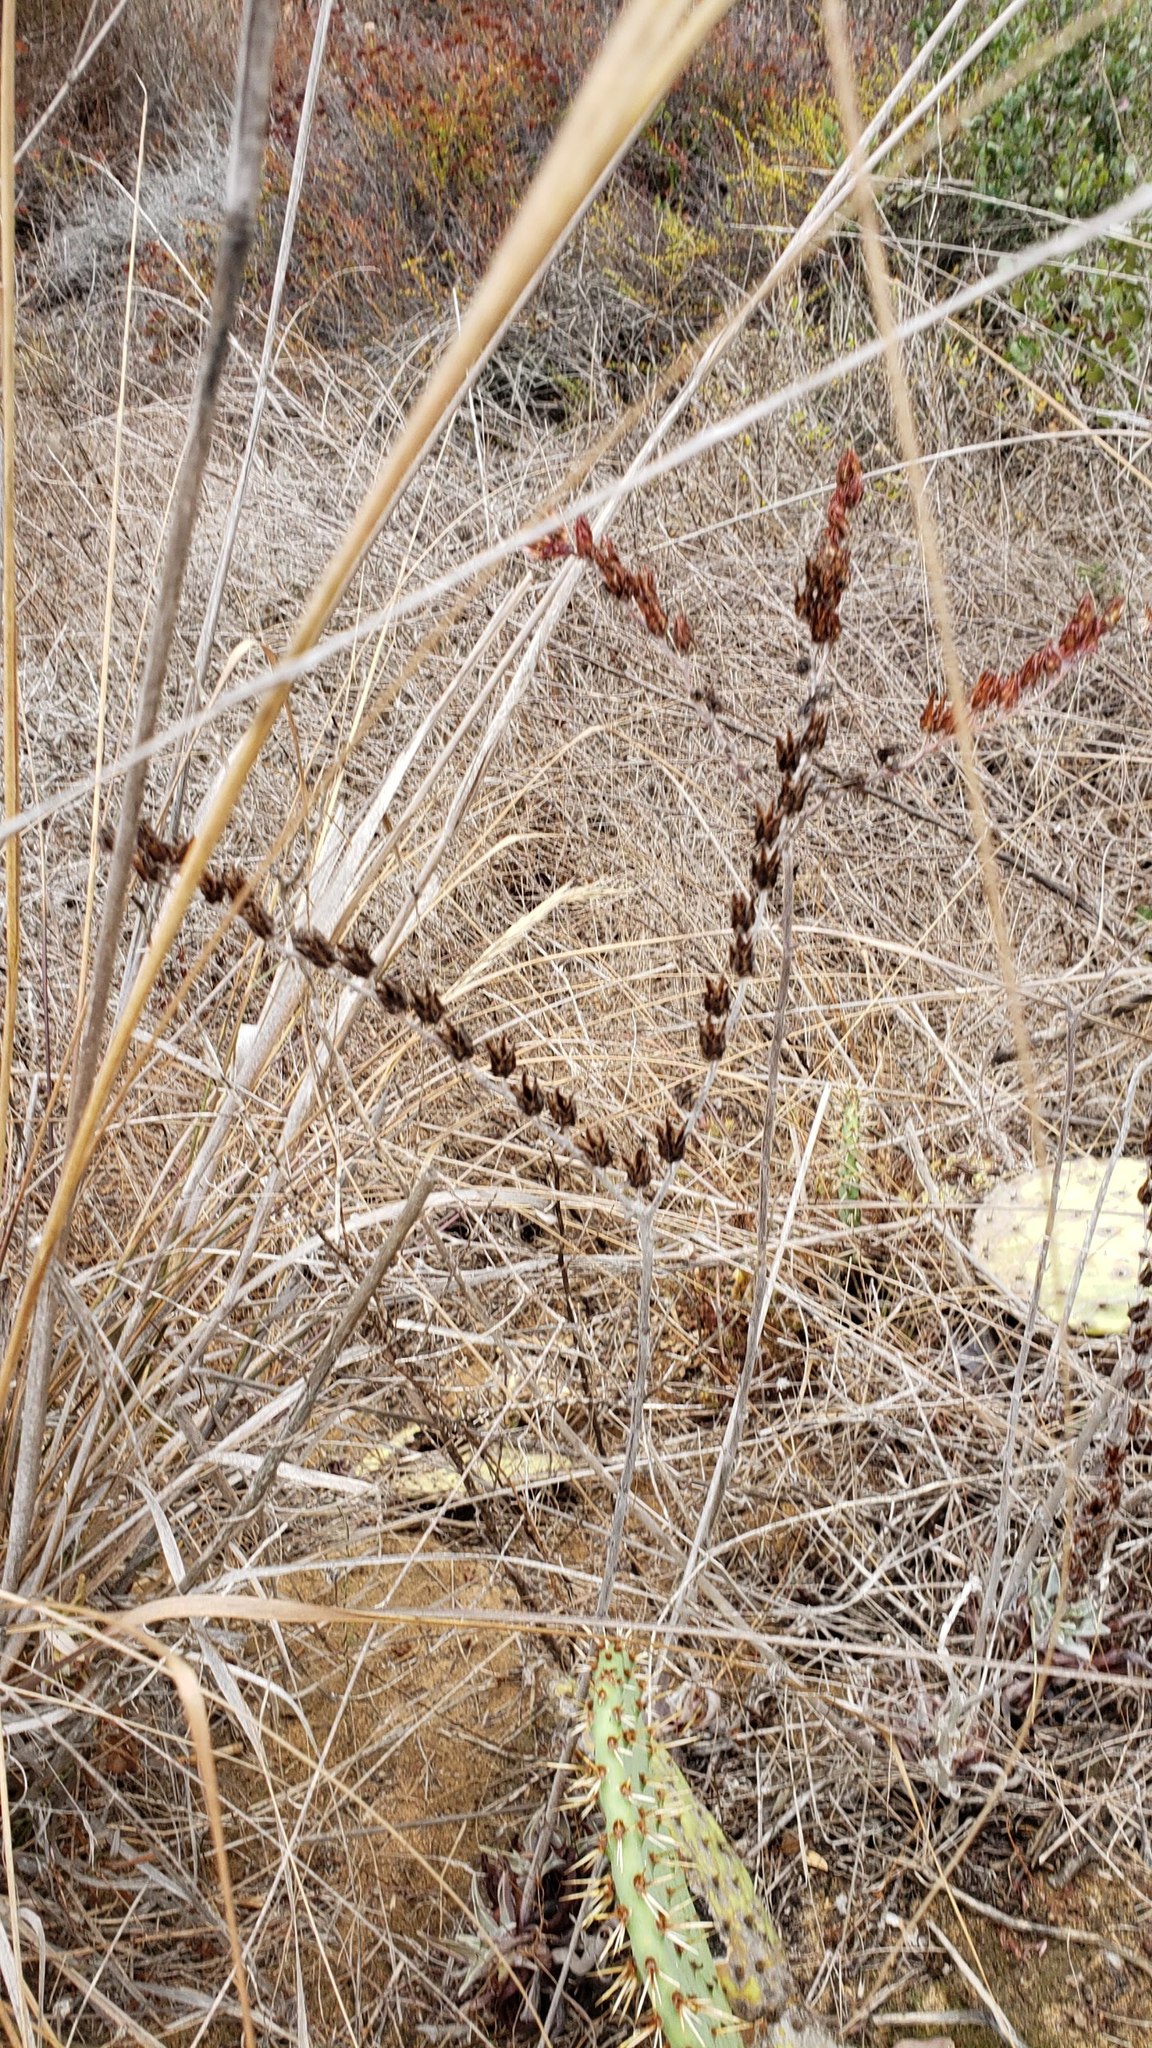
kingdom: Plantae
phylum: Tracheophyta
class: Magnoliopsida
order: Saxifragales
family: Crassulaceae
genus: Dudleya
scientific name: Dudleya lanceolata
